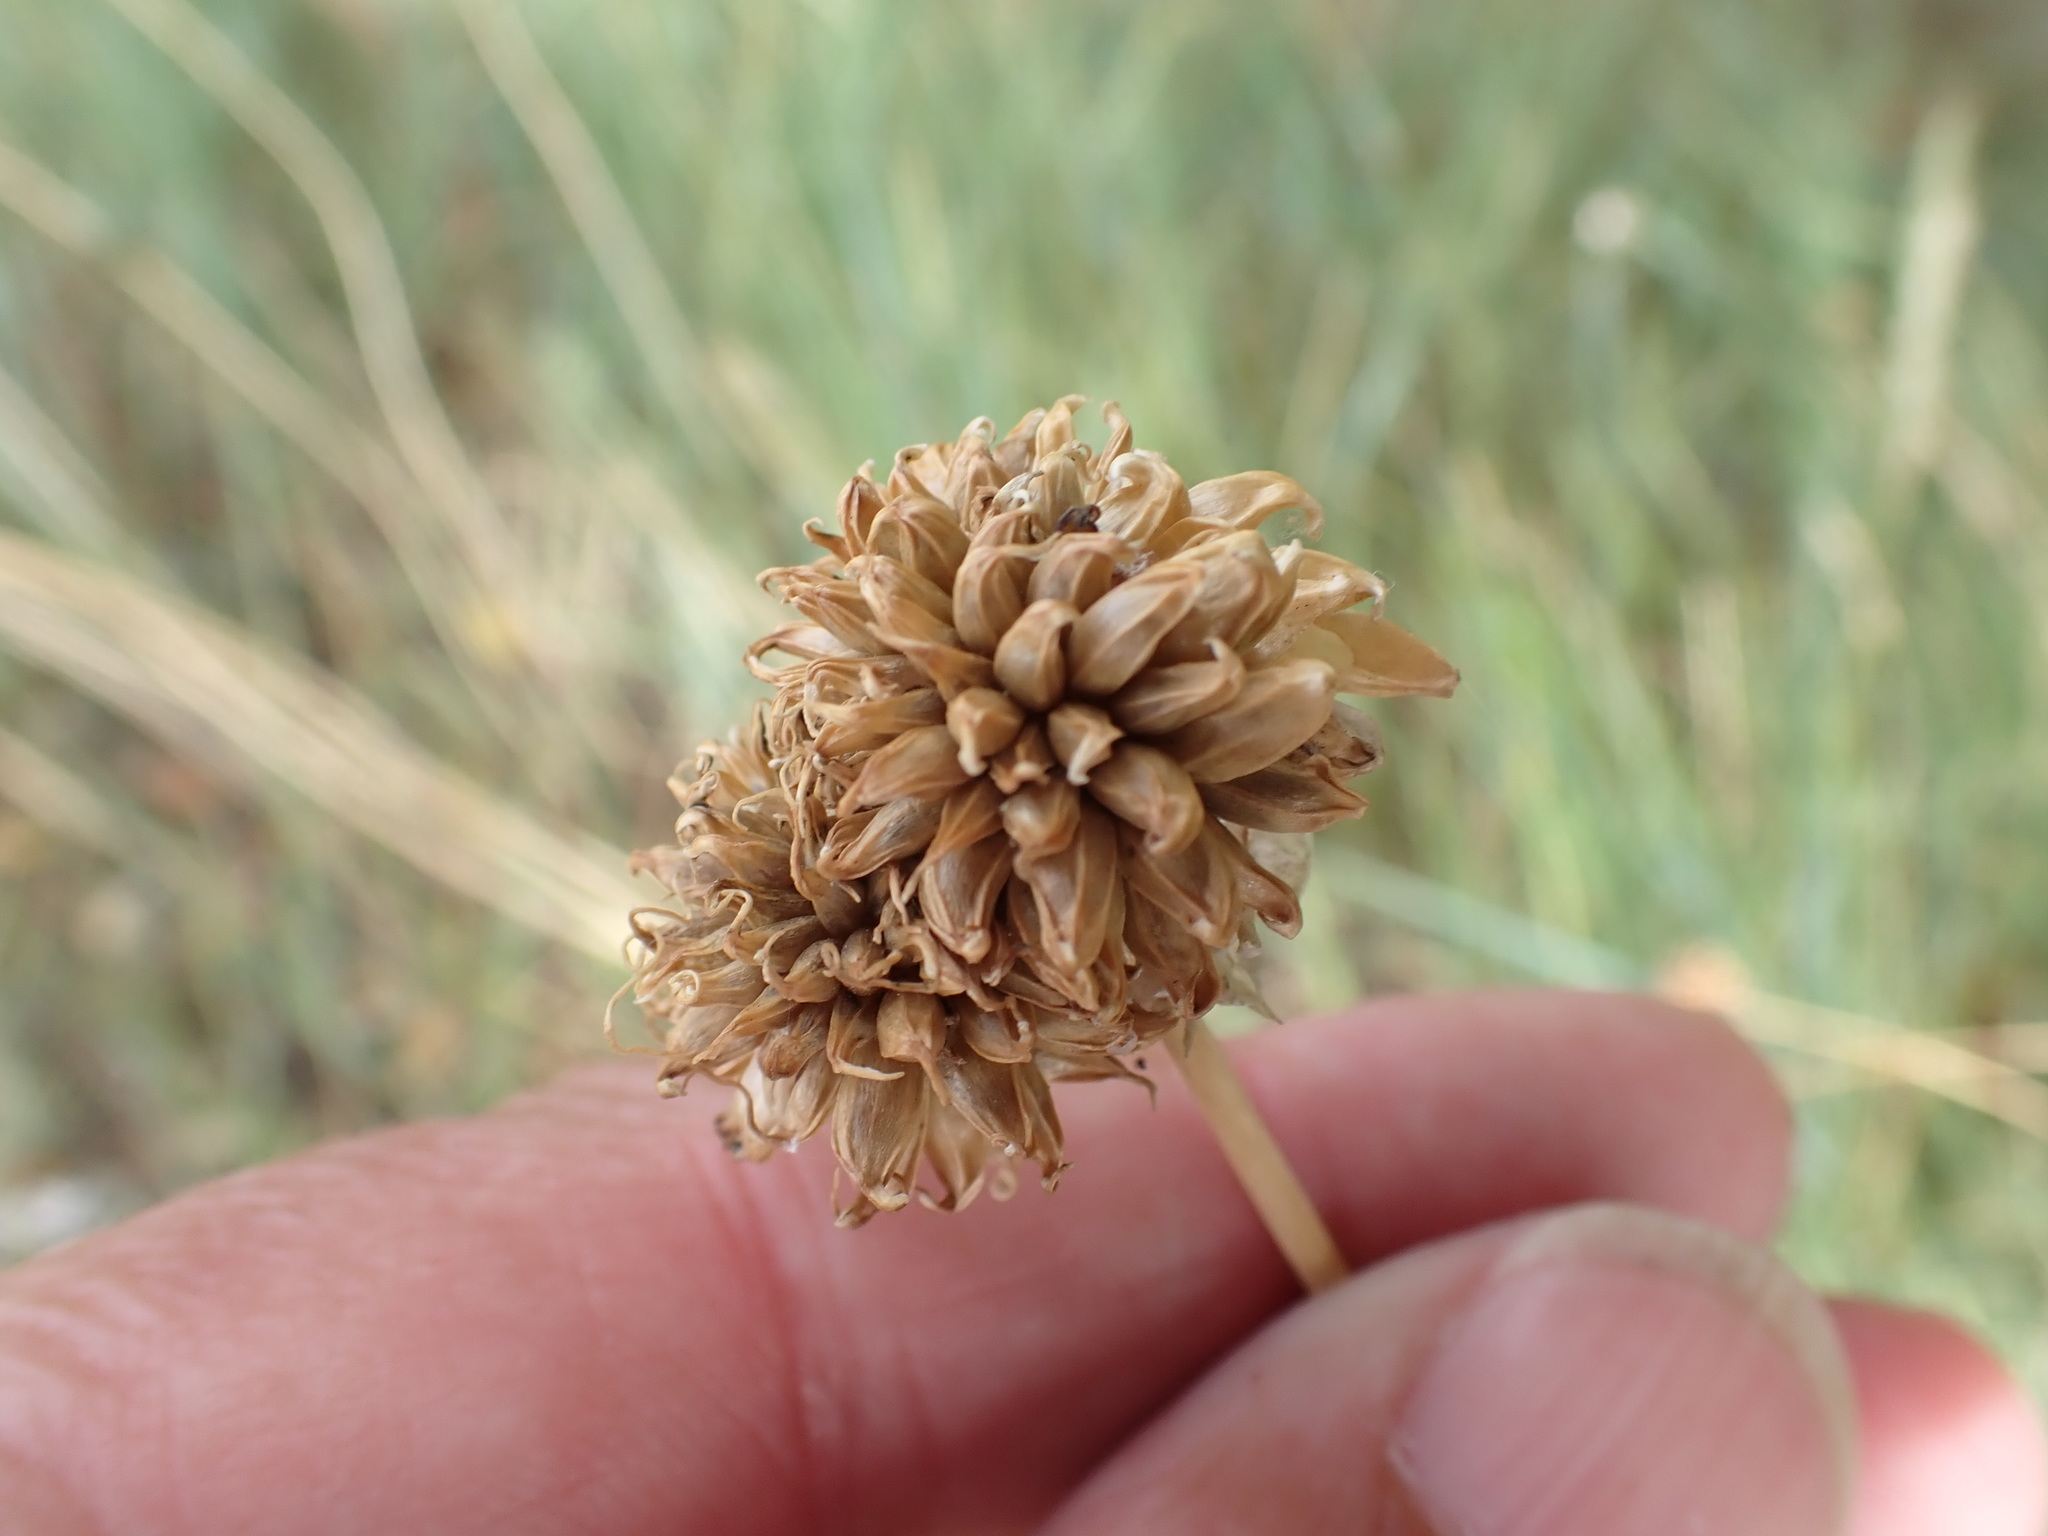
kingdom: Plantae
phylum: Tracheophyta
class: Liliopsida
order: Asparagales
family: Amaryllidaceae
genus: Allium
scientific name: Allium vineale
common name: Crow garlic
